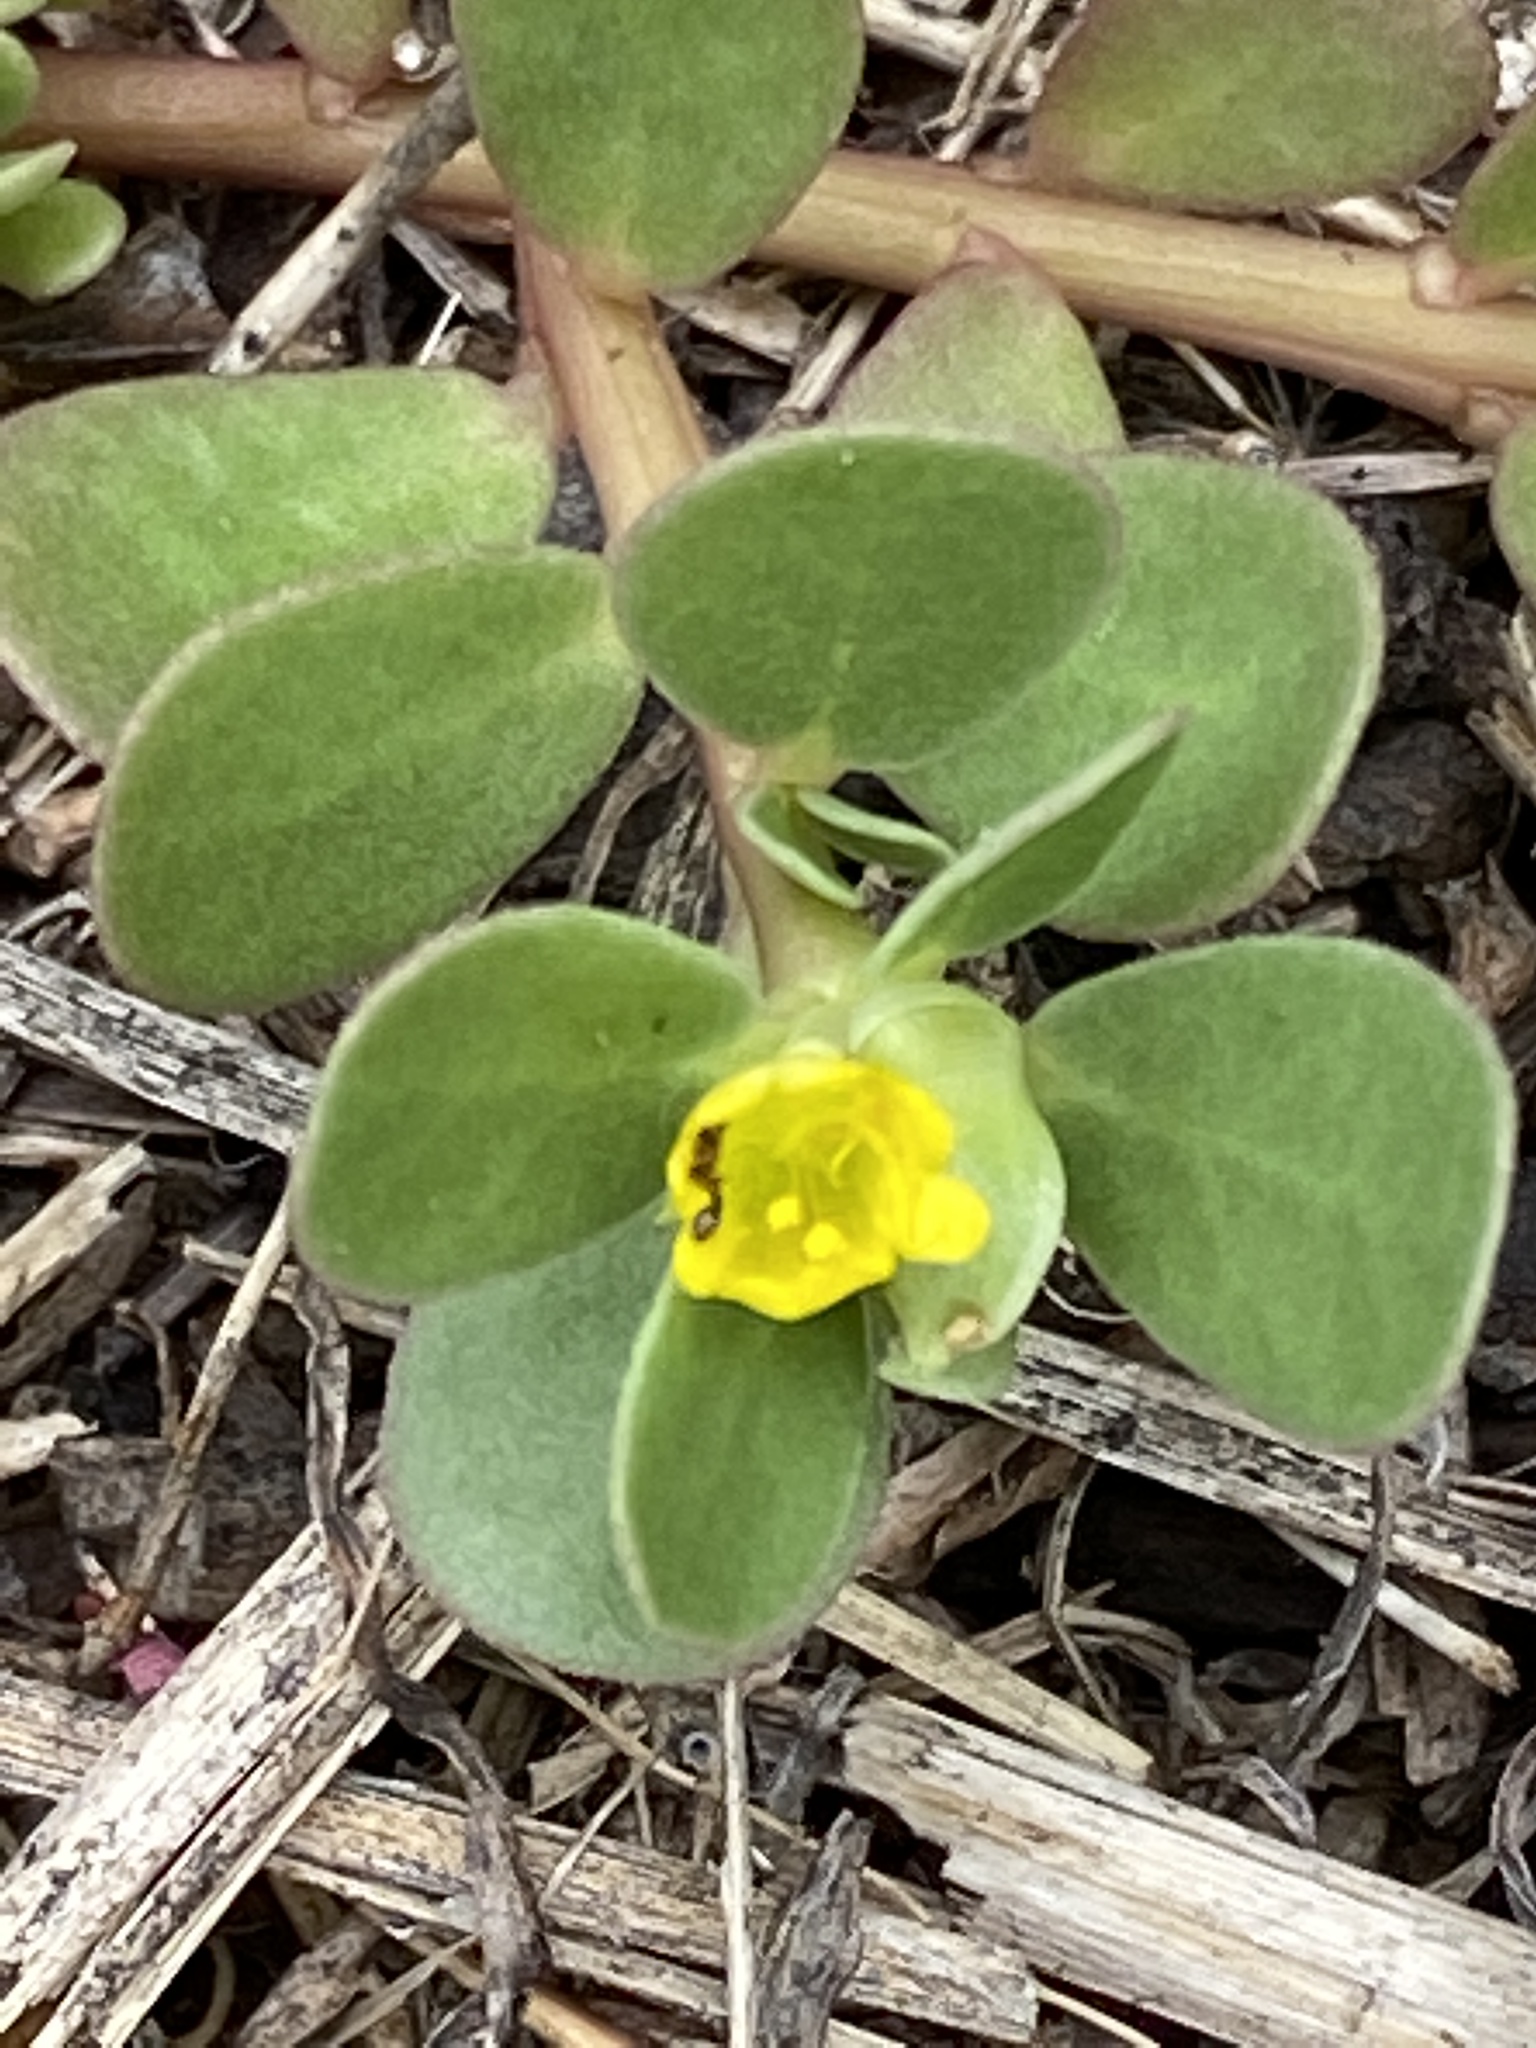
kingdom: Plantae
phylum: Tracheophyta
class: Magnoliopsida
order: Caryophyllales
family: Portulacaceae
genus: Portulaca
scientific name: Portulaca oleracea
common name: Common purslane
